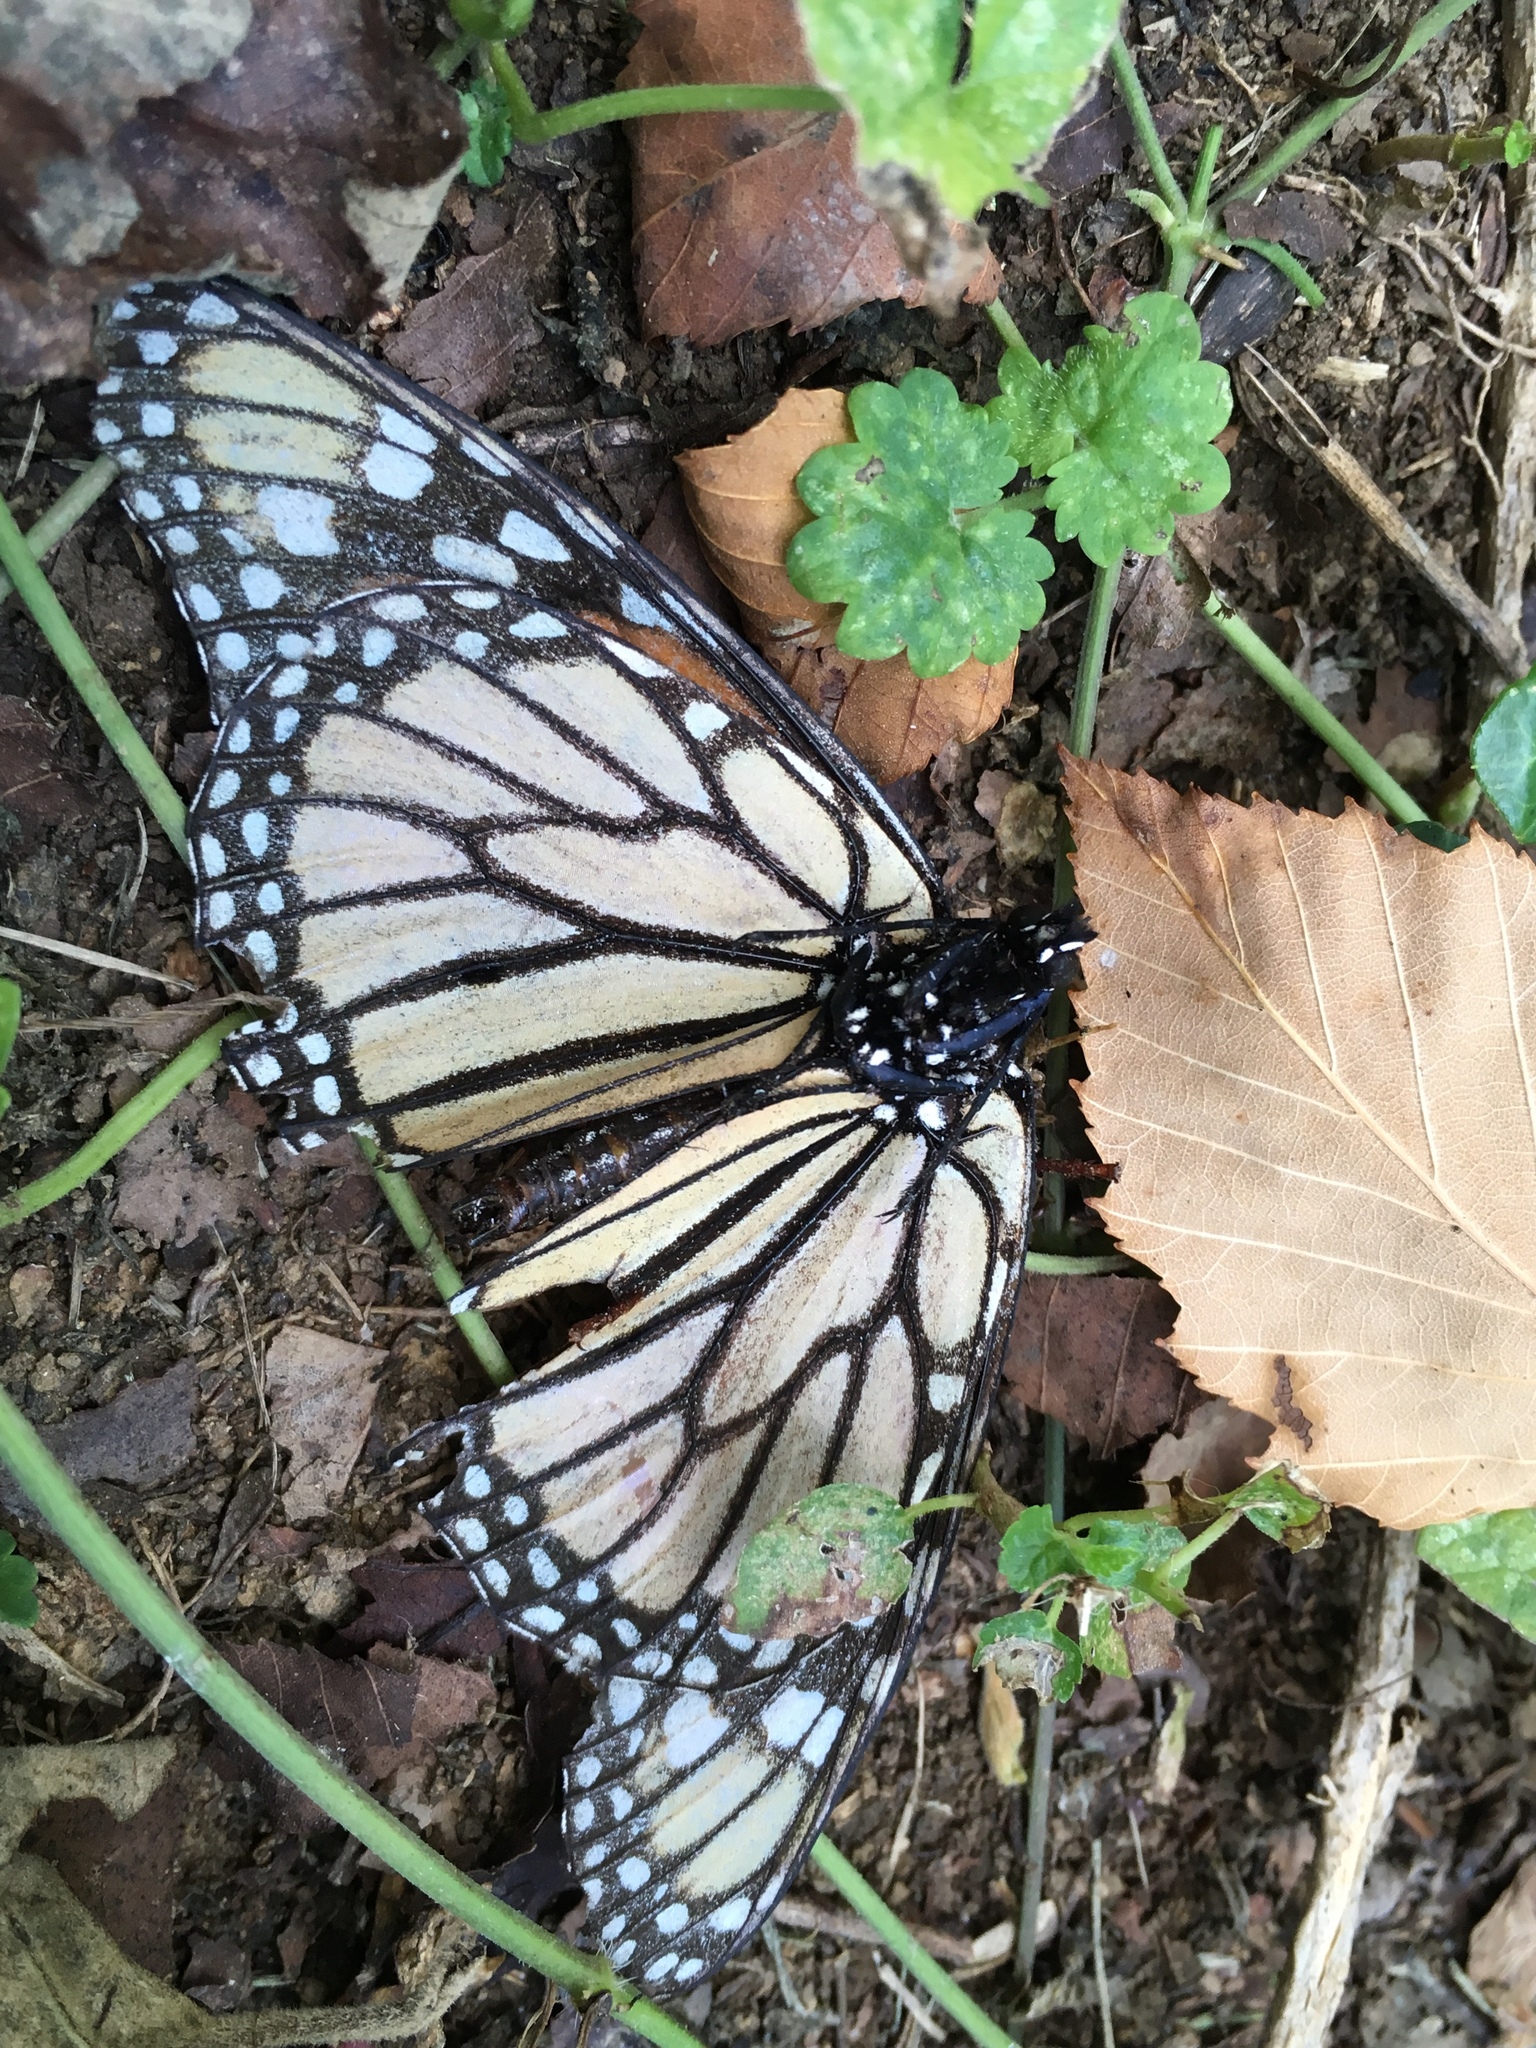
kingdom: Animalia
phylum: Arthropoda
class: Insecta
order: Lepidoptera
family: Nymphalidae
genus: Danaus
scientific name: Danaus plexippus
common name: Monarch
